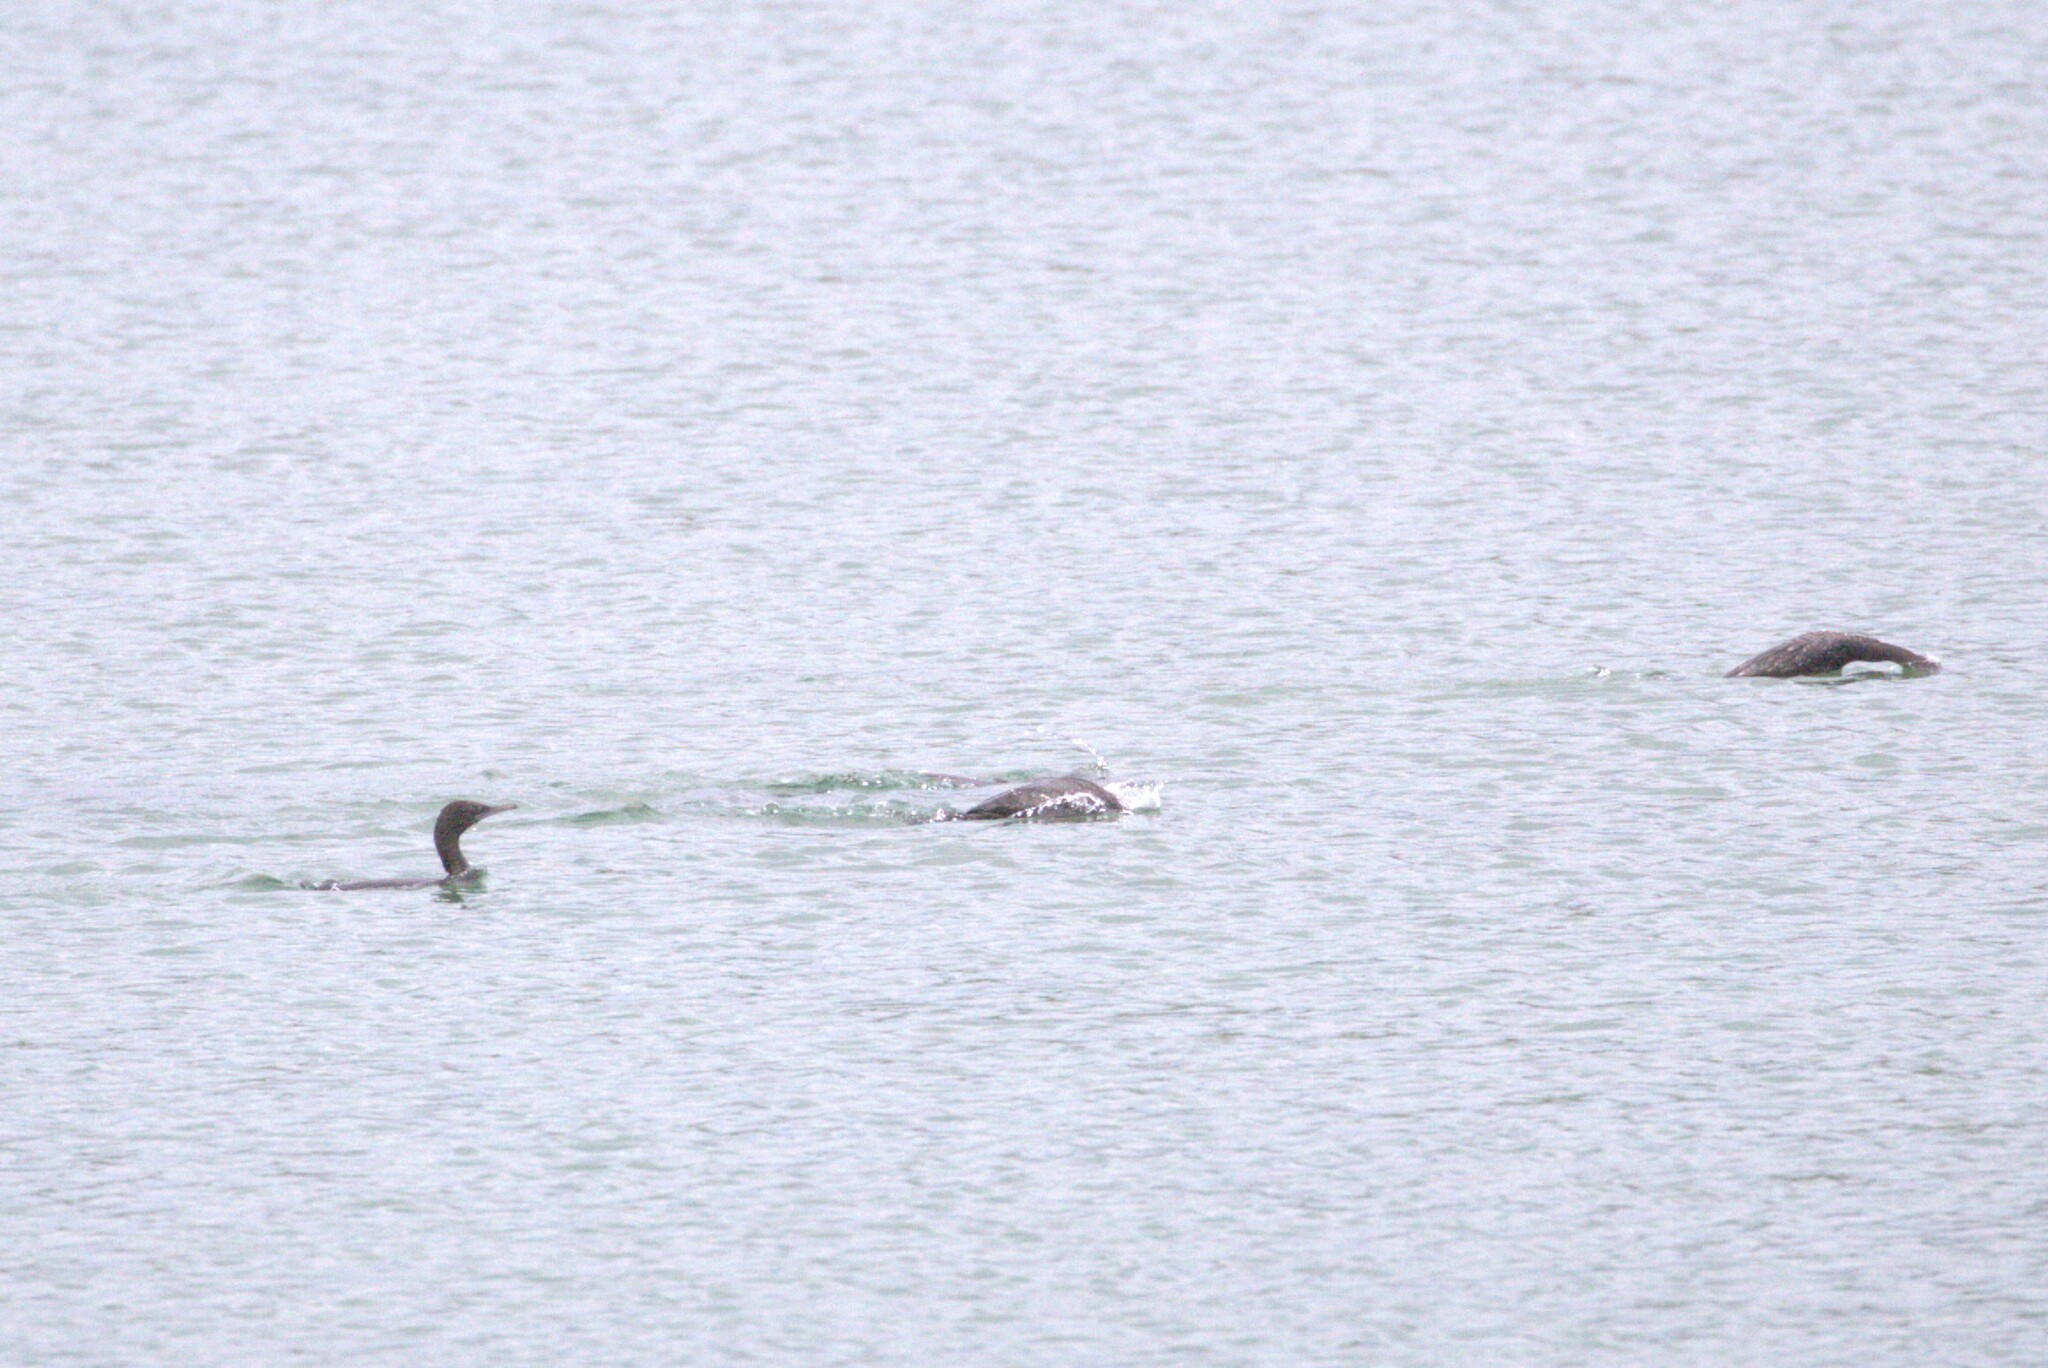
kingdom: Animalia
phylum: Chordata
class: Aves
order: Suliformes
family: Phalacrocoracidae
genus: Phalacrocorax
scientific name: Phalacrocorax sulcirostris
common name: Little black cormorant
